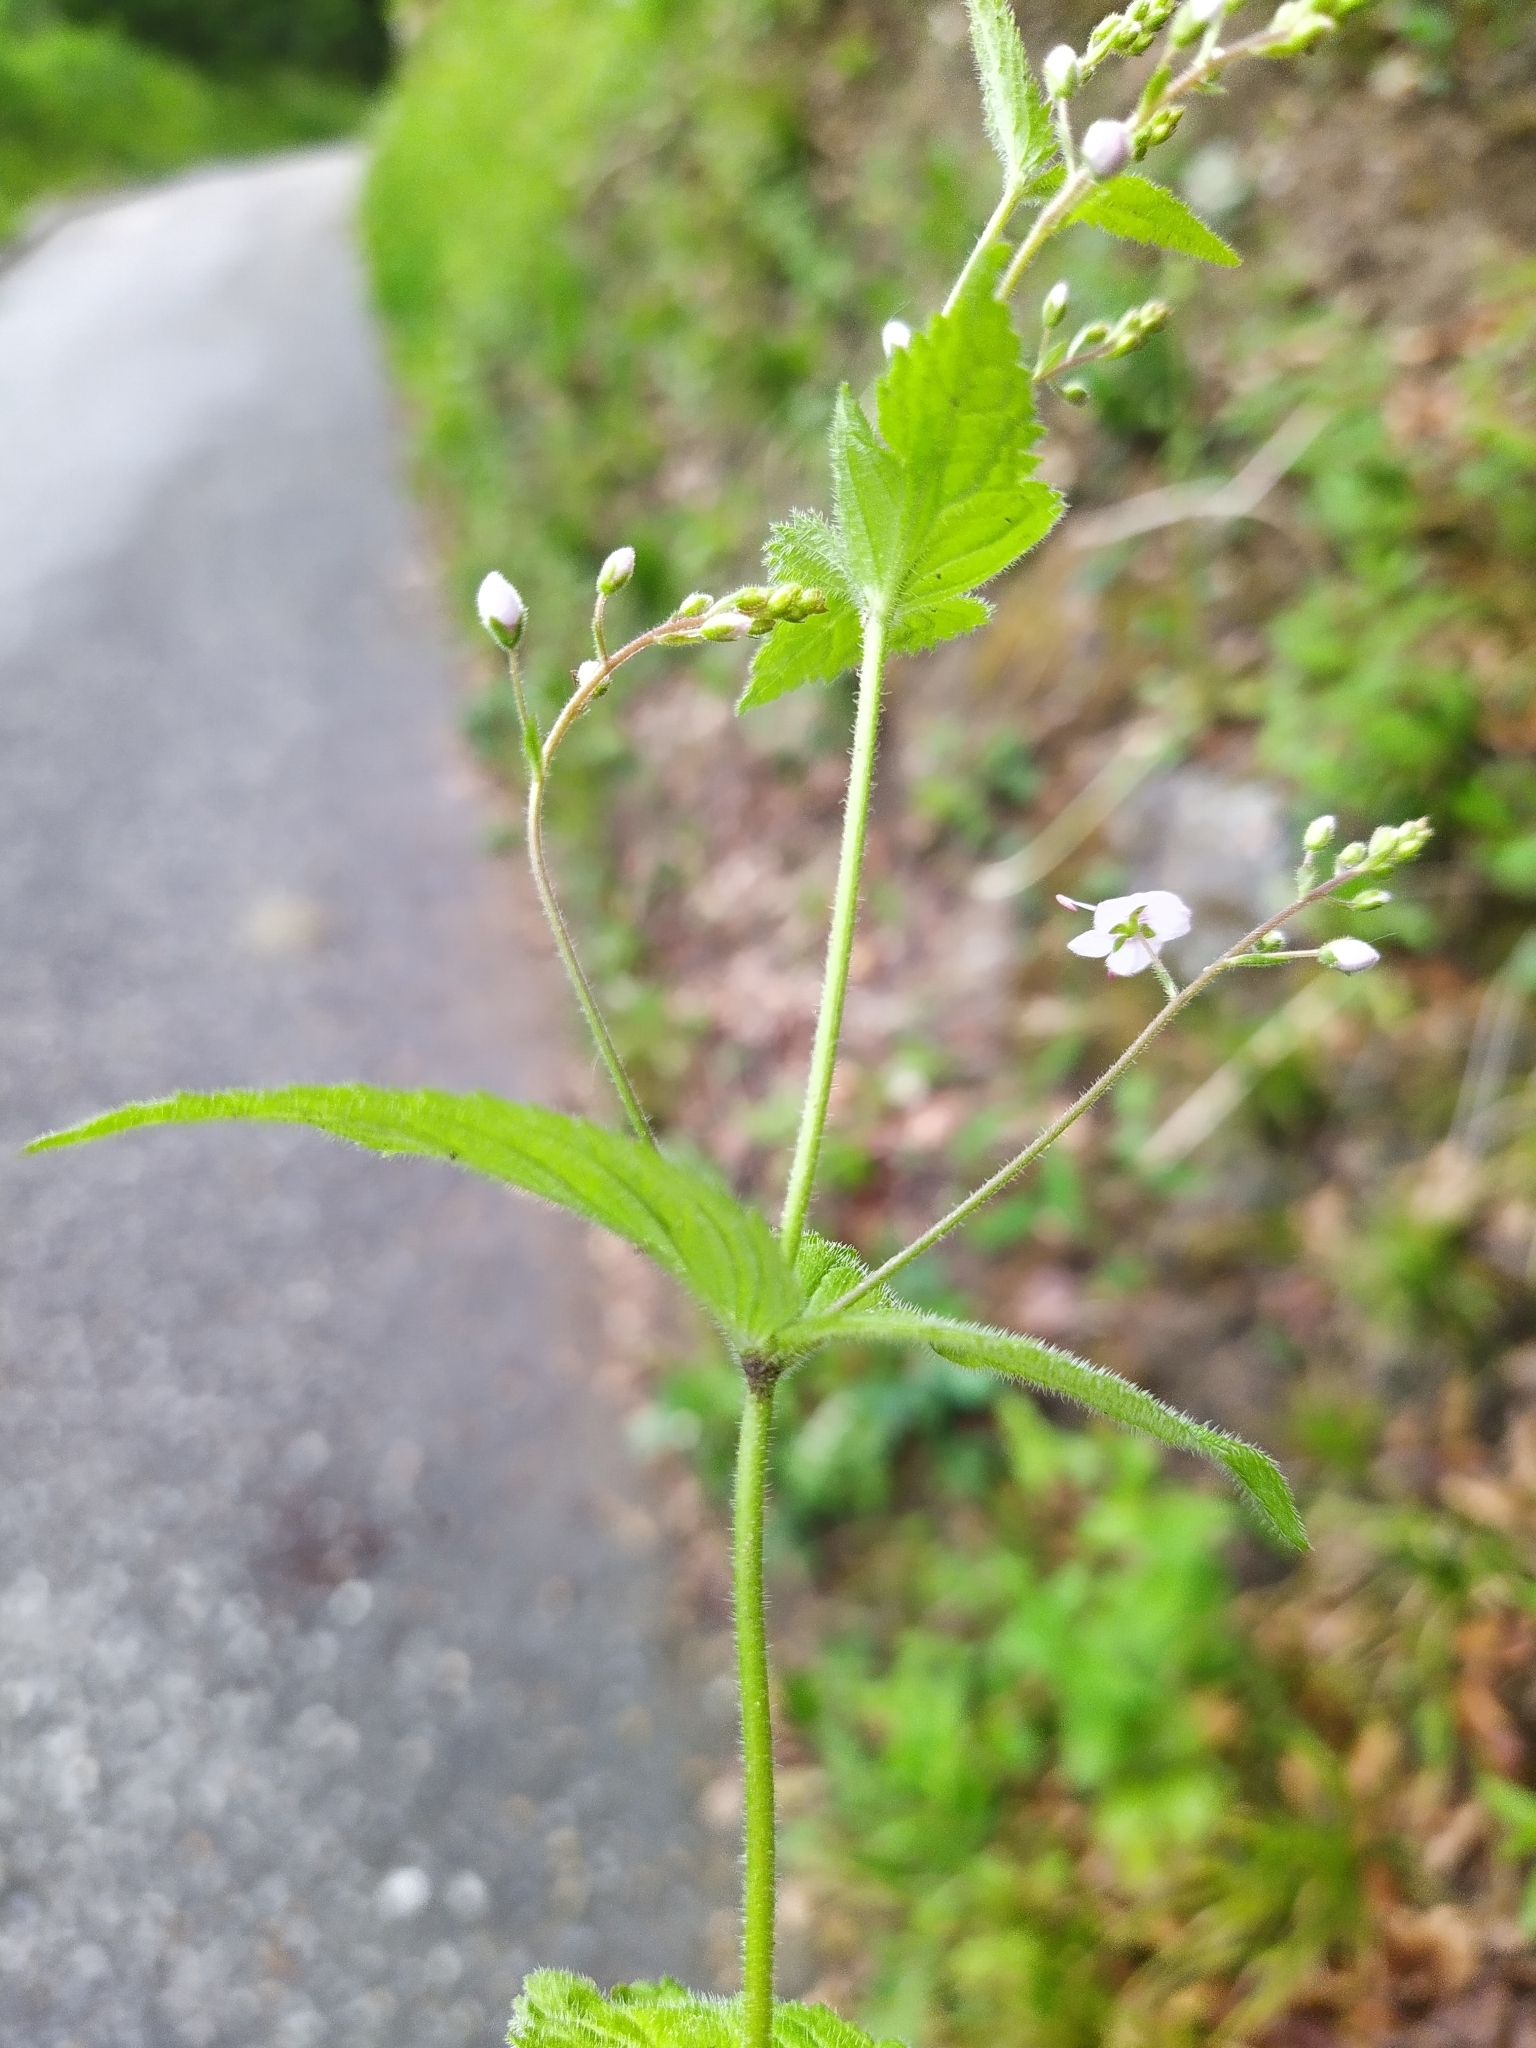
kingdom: Plantae
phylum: Tracheophyta
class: Magnoliopsida
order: Lamiales
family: Plantaginaceae
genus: Veronica
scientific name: Veronica urticifolia
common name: Nettle-leaf speedwell
